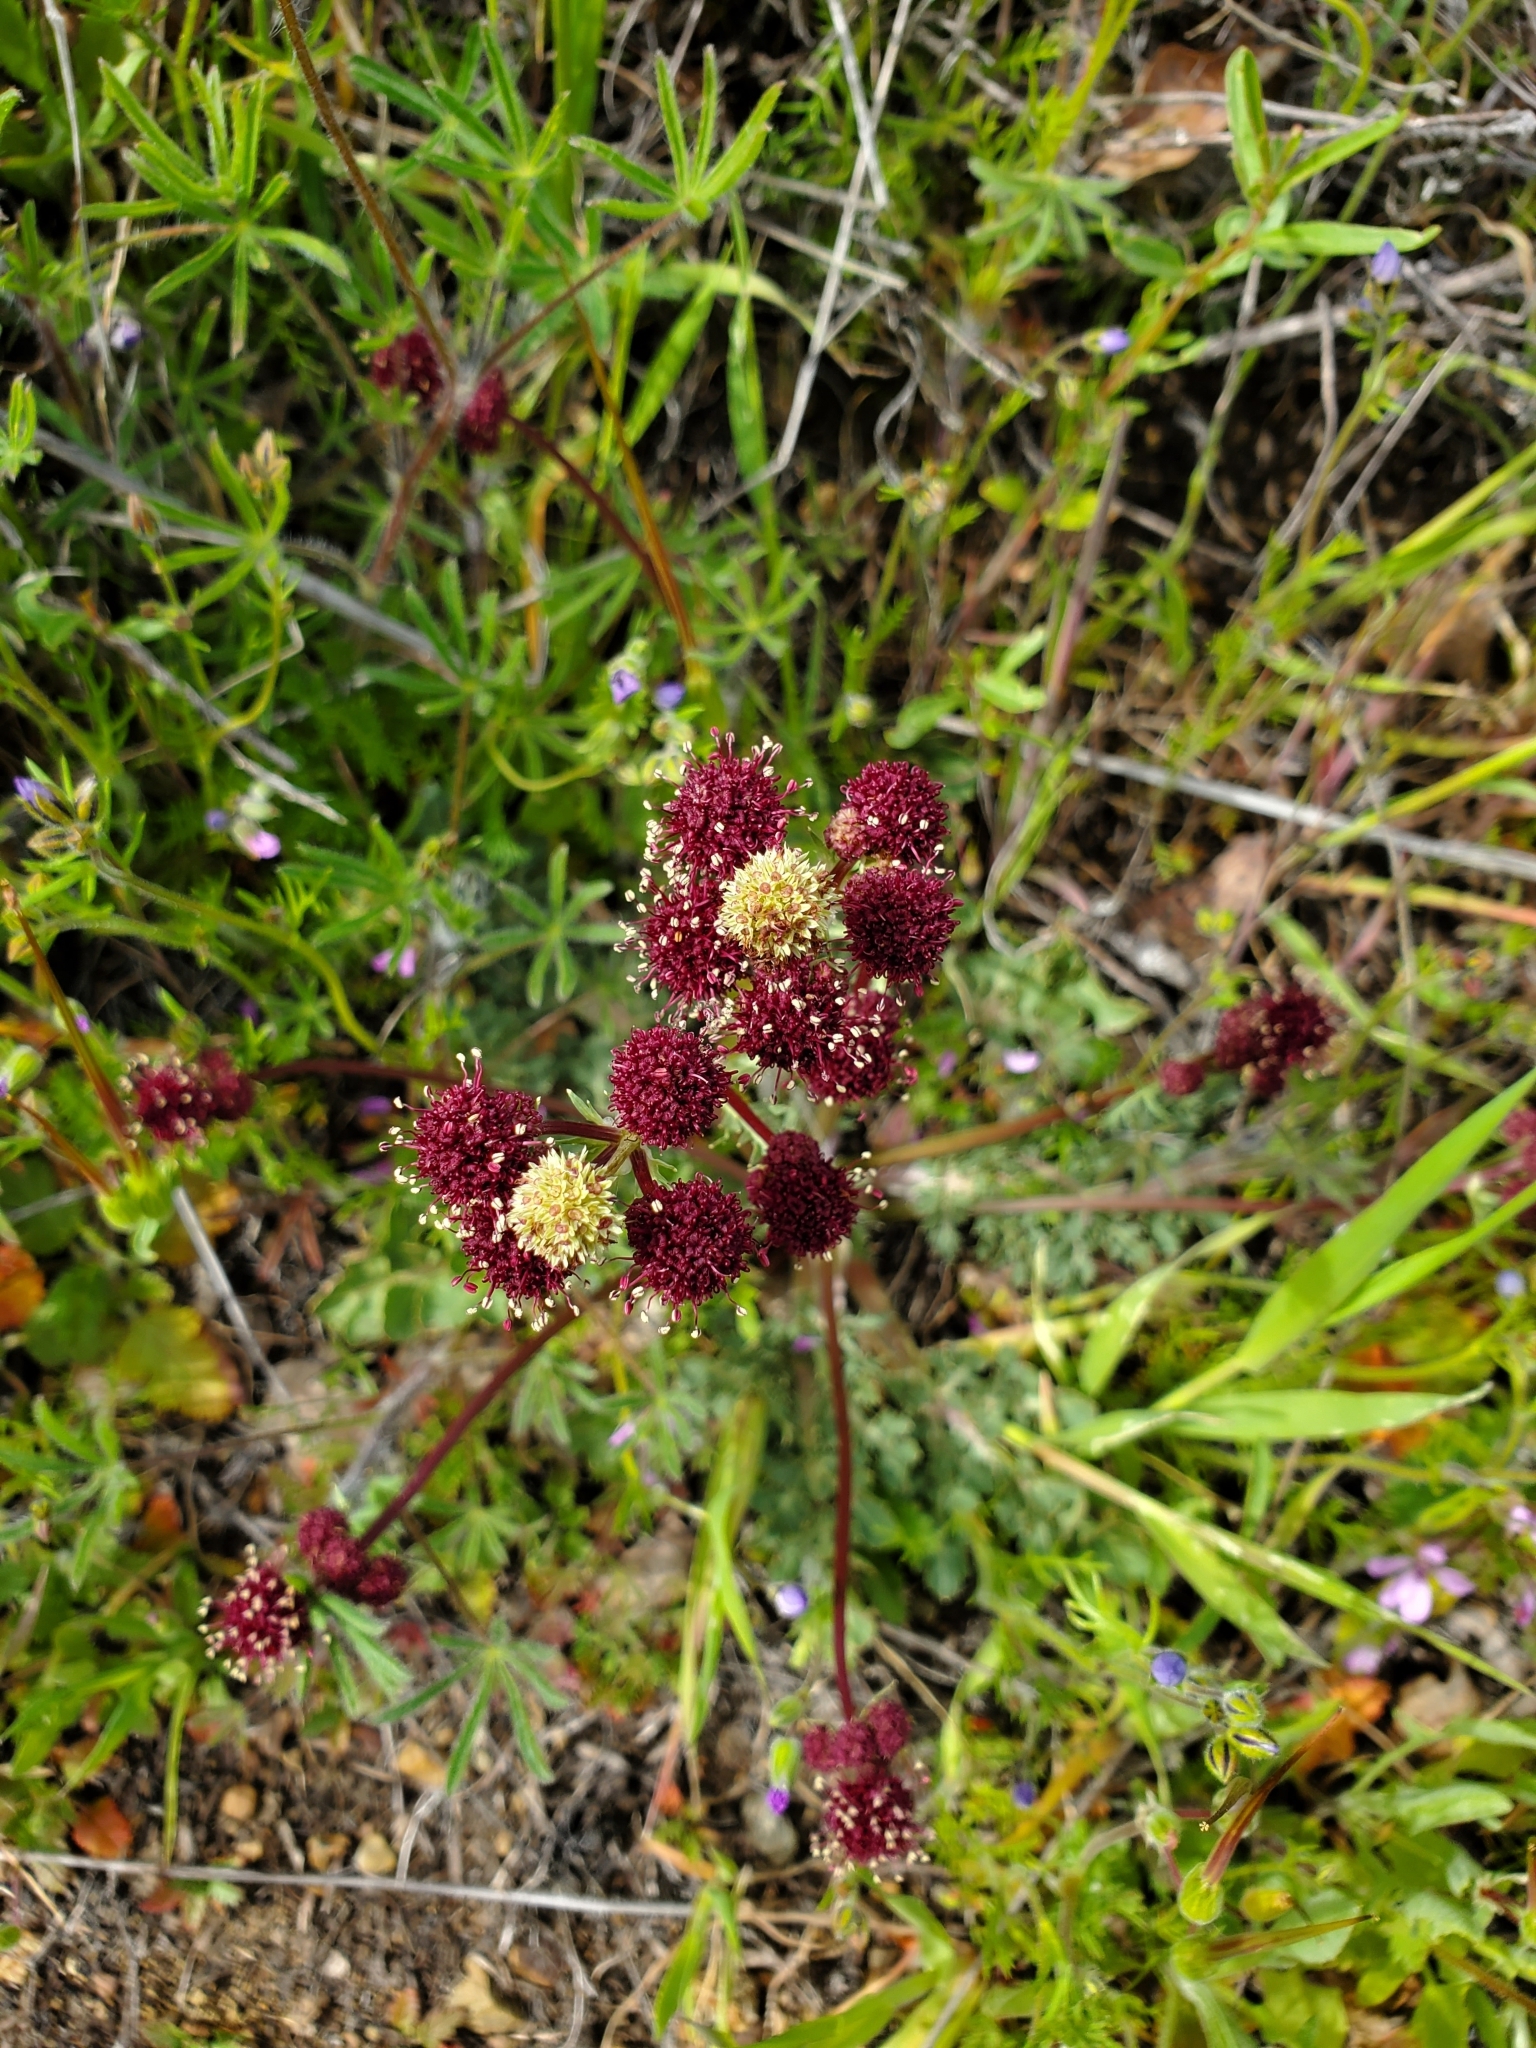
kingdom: Plantae
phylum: Tracheophyta
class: Magnoliopsida
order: Apiales
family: Apiaceae
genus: Sanicula
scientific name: Sanicula bipinnatifida
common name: Shoe-buttons
